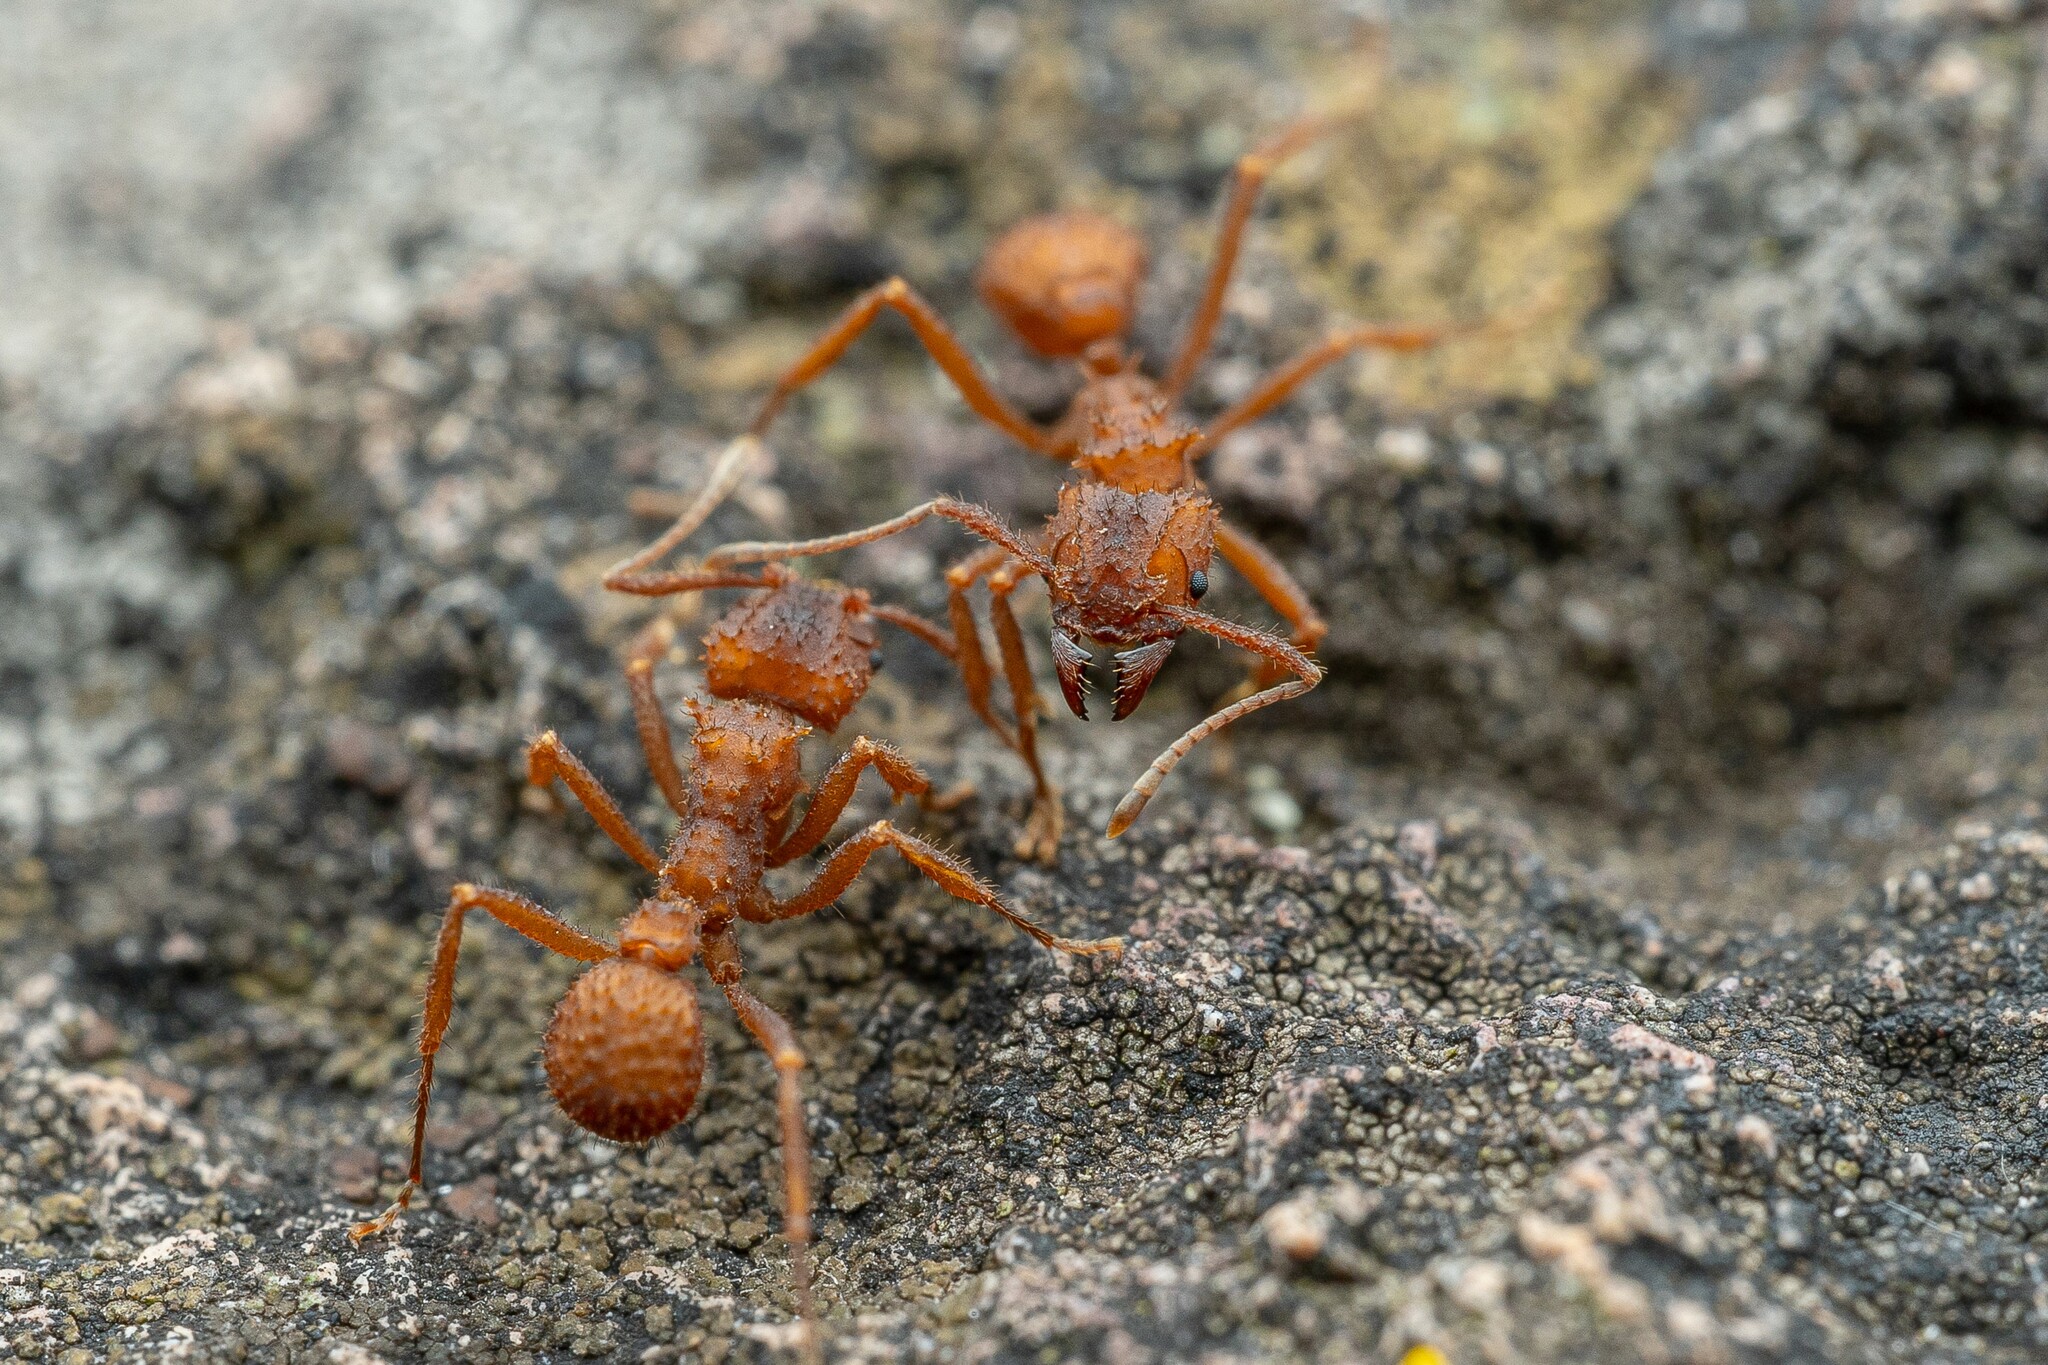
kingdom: Animalia
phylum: Arthropoda
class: Insecta
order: Hymenoptera
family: Formicidae
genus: Trachymyrmex
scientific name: Trachymyrmex arizonensis
